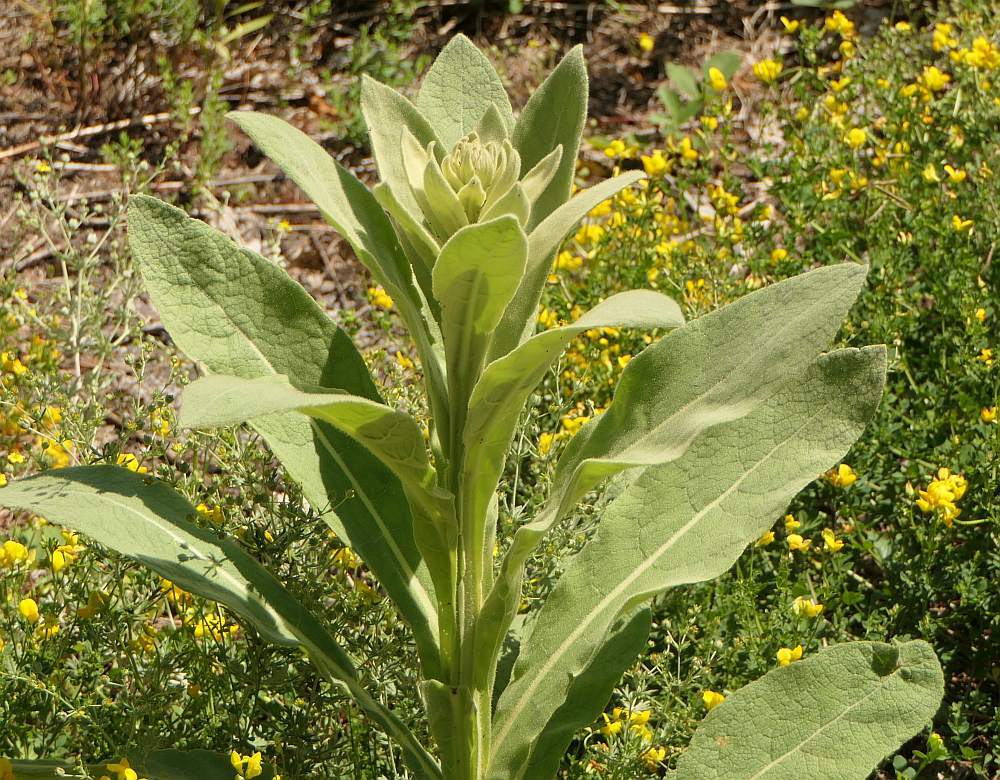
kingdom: Plantae
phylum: Tracheophyta
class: Magnoliopsida
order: Lamiales
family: Scrophulariaceae
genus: Verbascum
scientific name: Verbascum thapsus
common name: Common mullein
